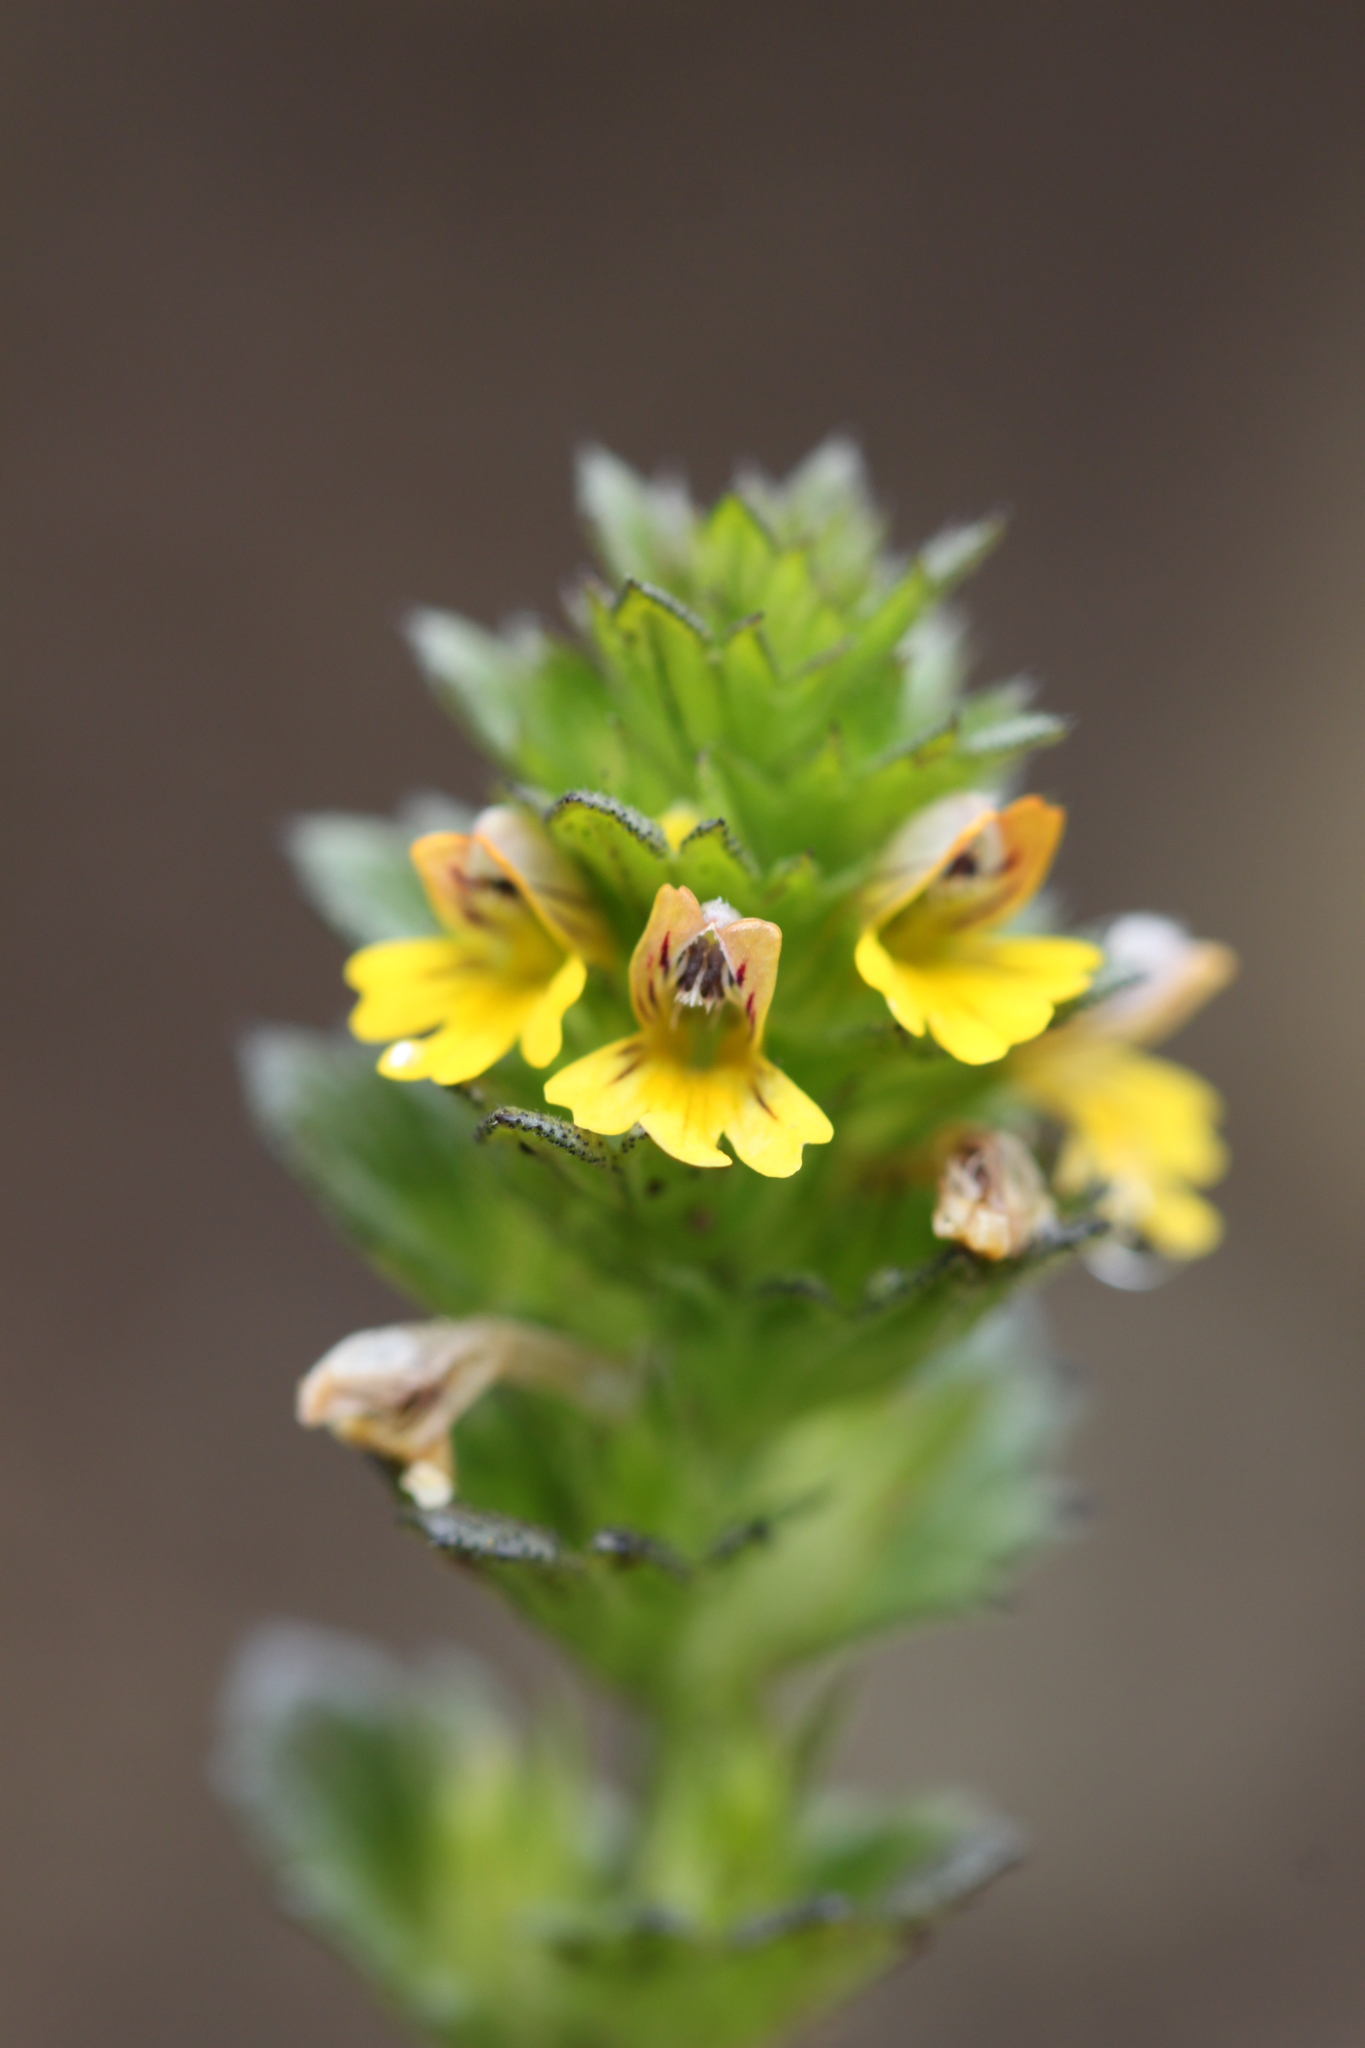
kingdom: Plantae
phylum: Tracheophyta
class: Magnoliopsida
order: Lamiales
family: Orobanchaceae
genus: Euphrasia
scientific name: Euphrasia minima
